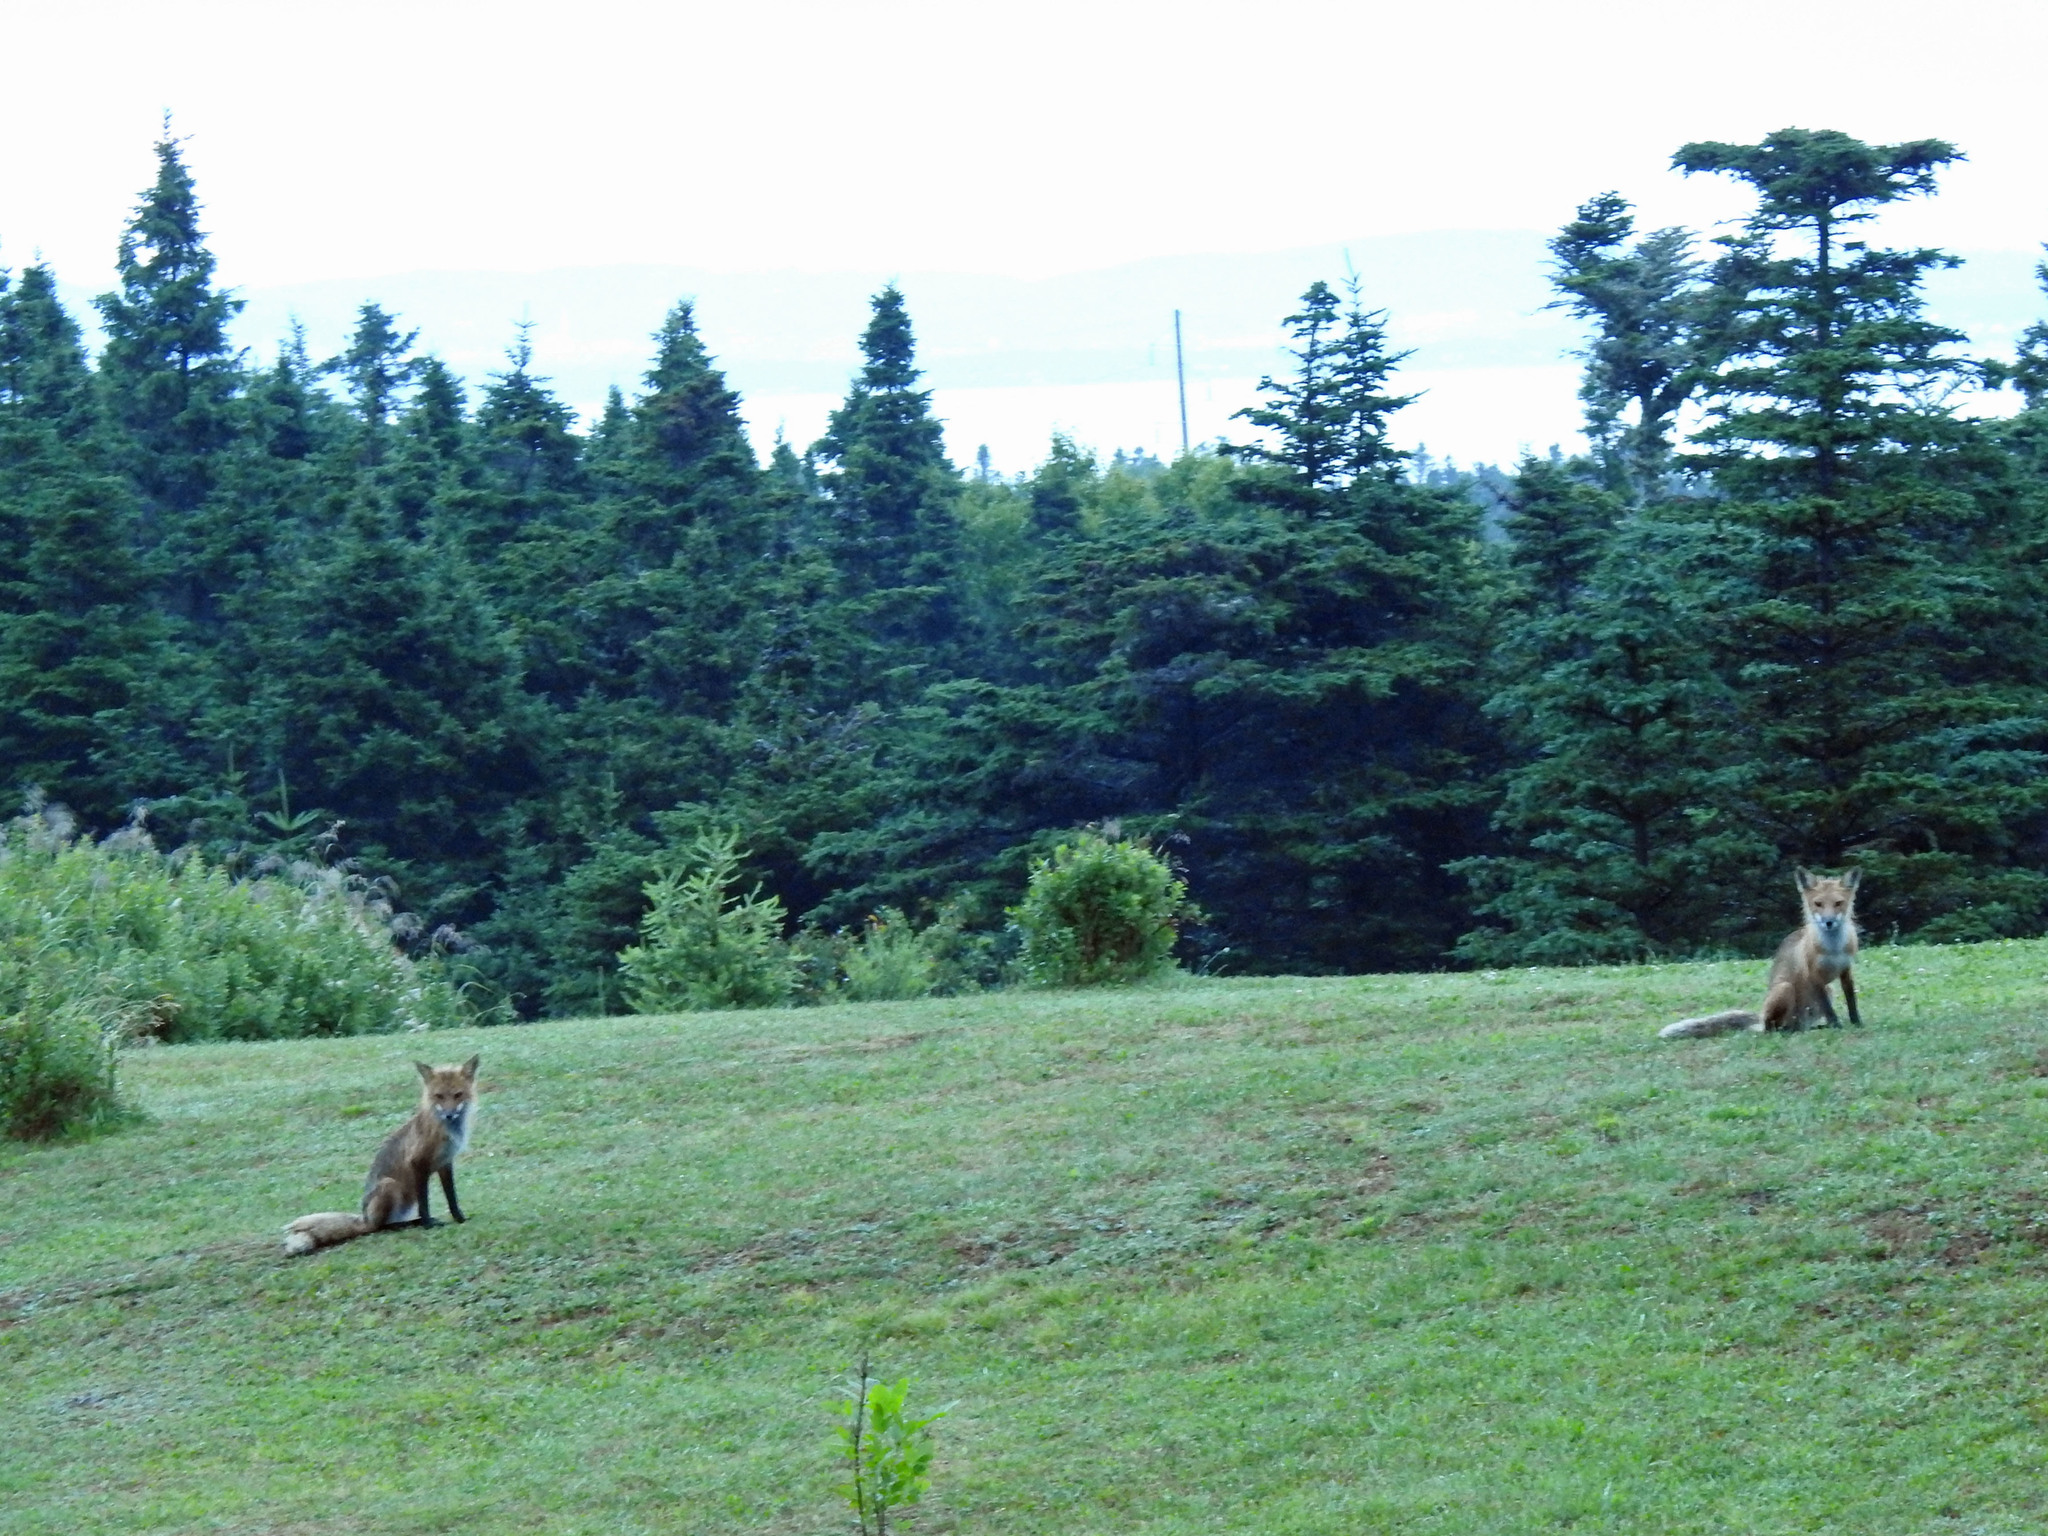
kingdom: Animalia
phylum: Chordata
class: Mammalia
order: Carnivora
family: Canidae
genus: Vulpes
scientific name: Vulpes vulpes
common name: Red fox
